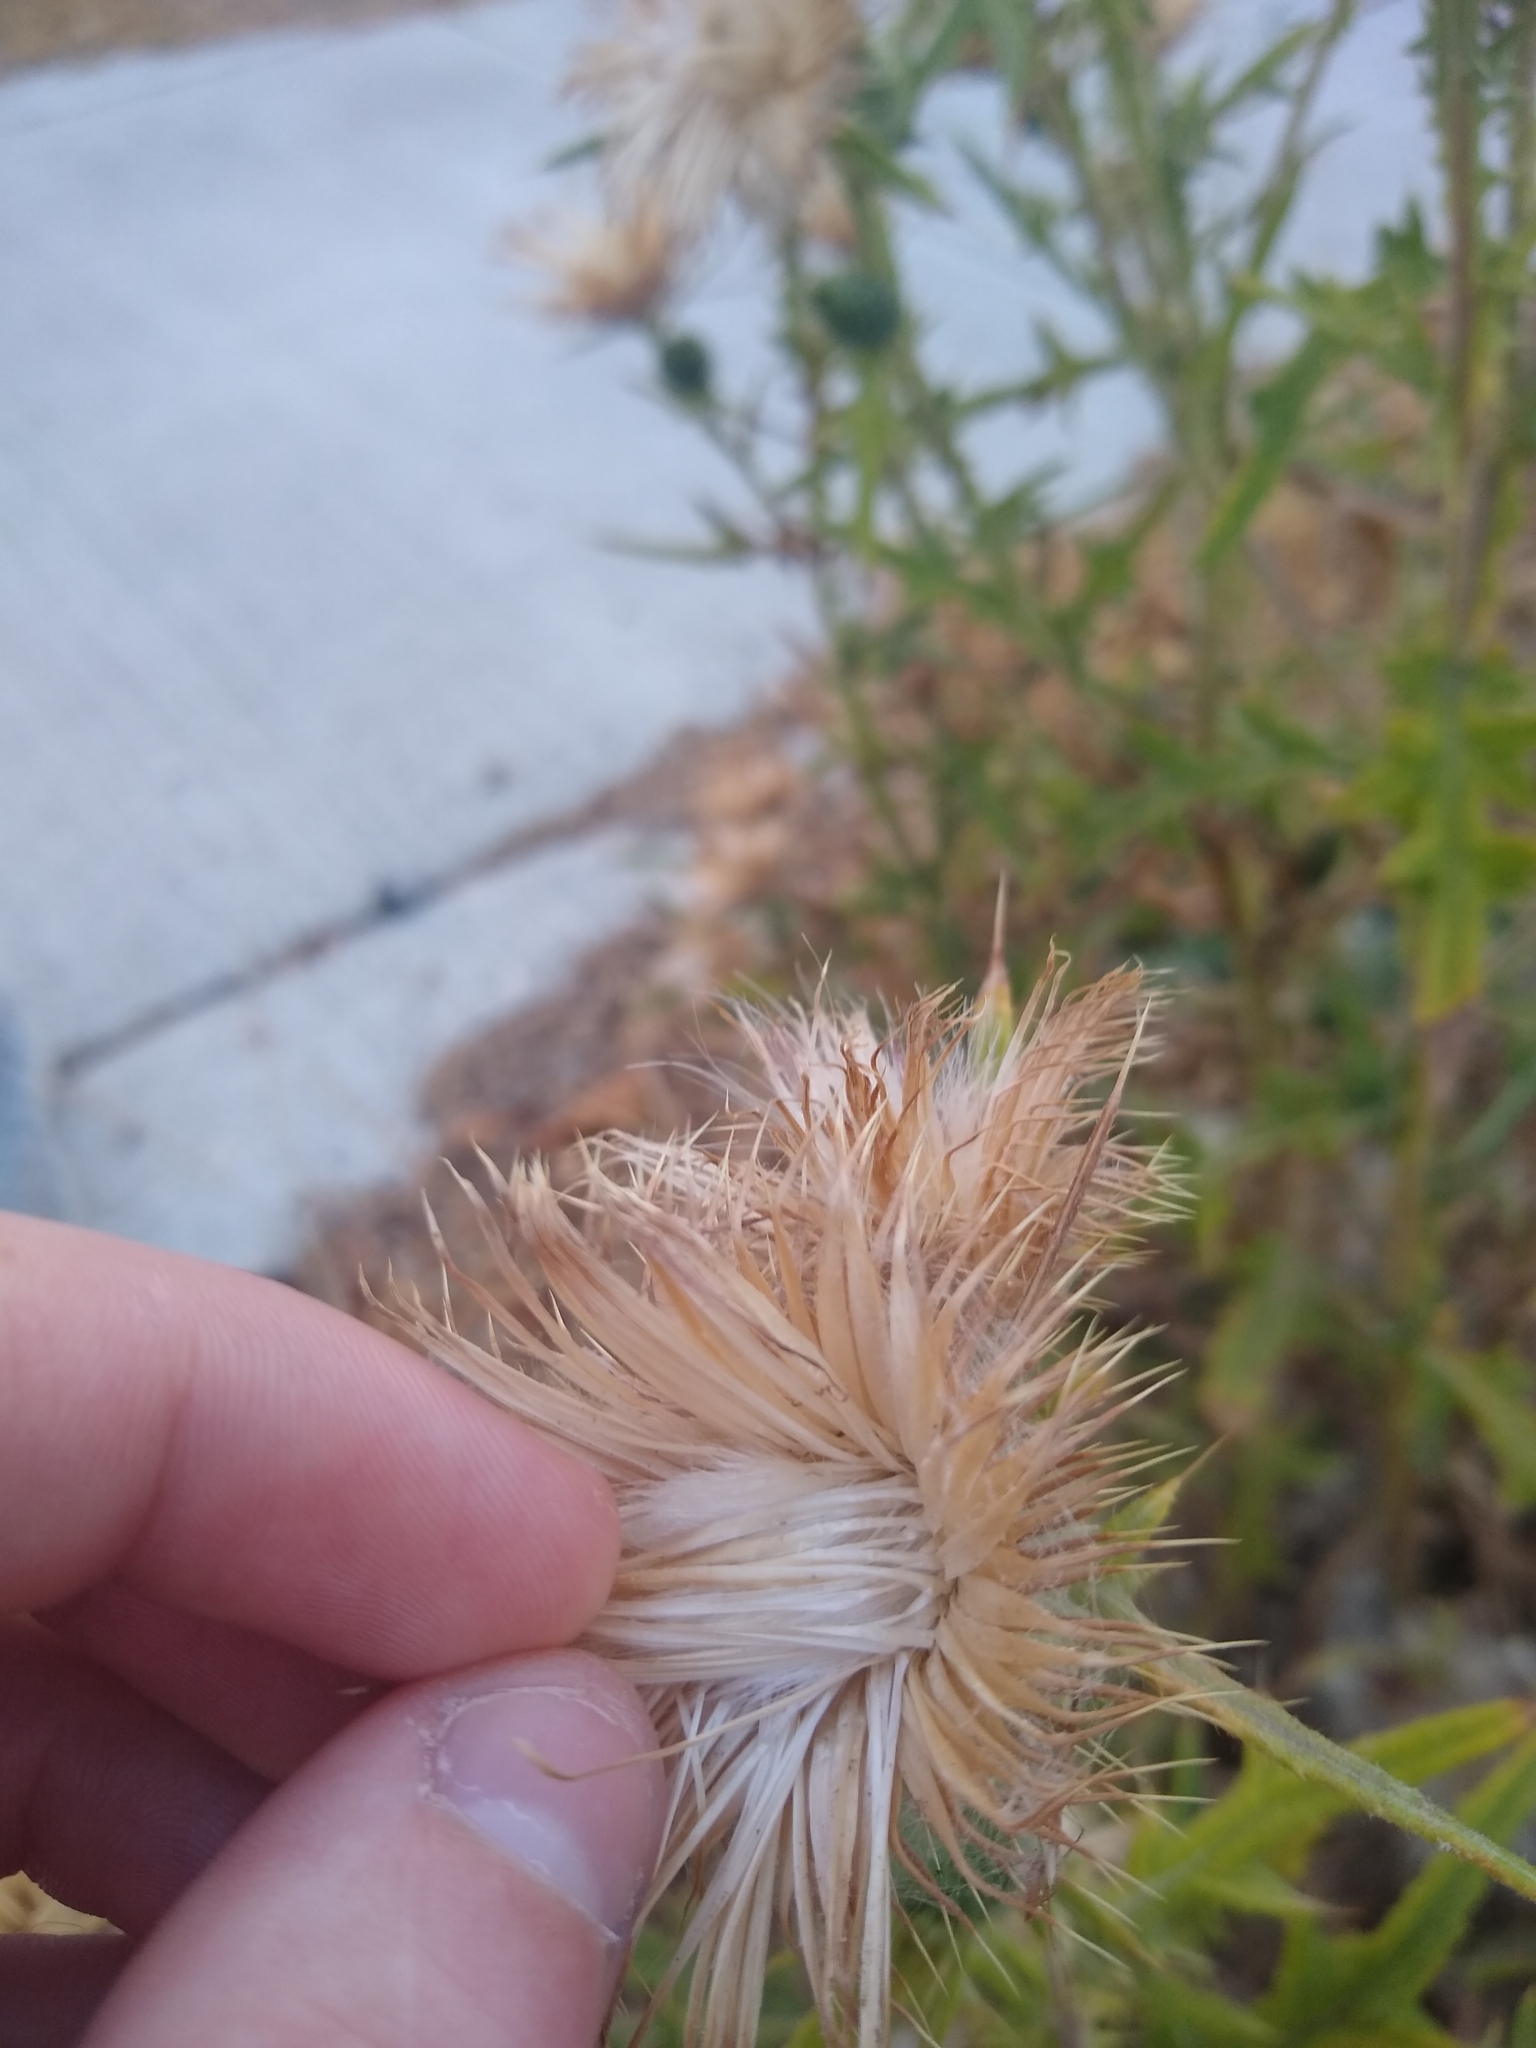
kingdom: Plantae
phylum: Tracheophyta
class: Magnoliopsida
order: Asterales
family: Asteraceae
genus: Cirsium
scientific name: Cirsium vulgare
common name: Bull thistle
